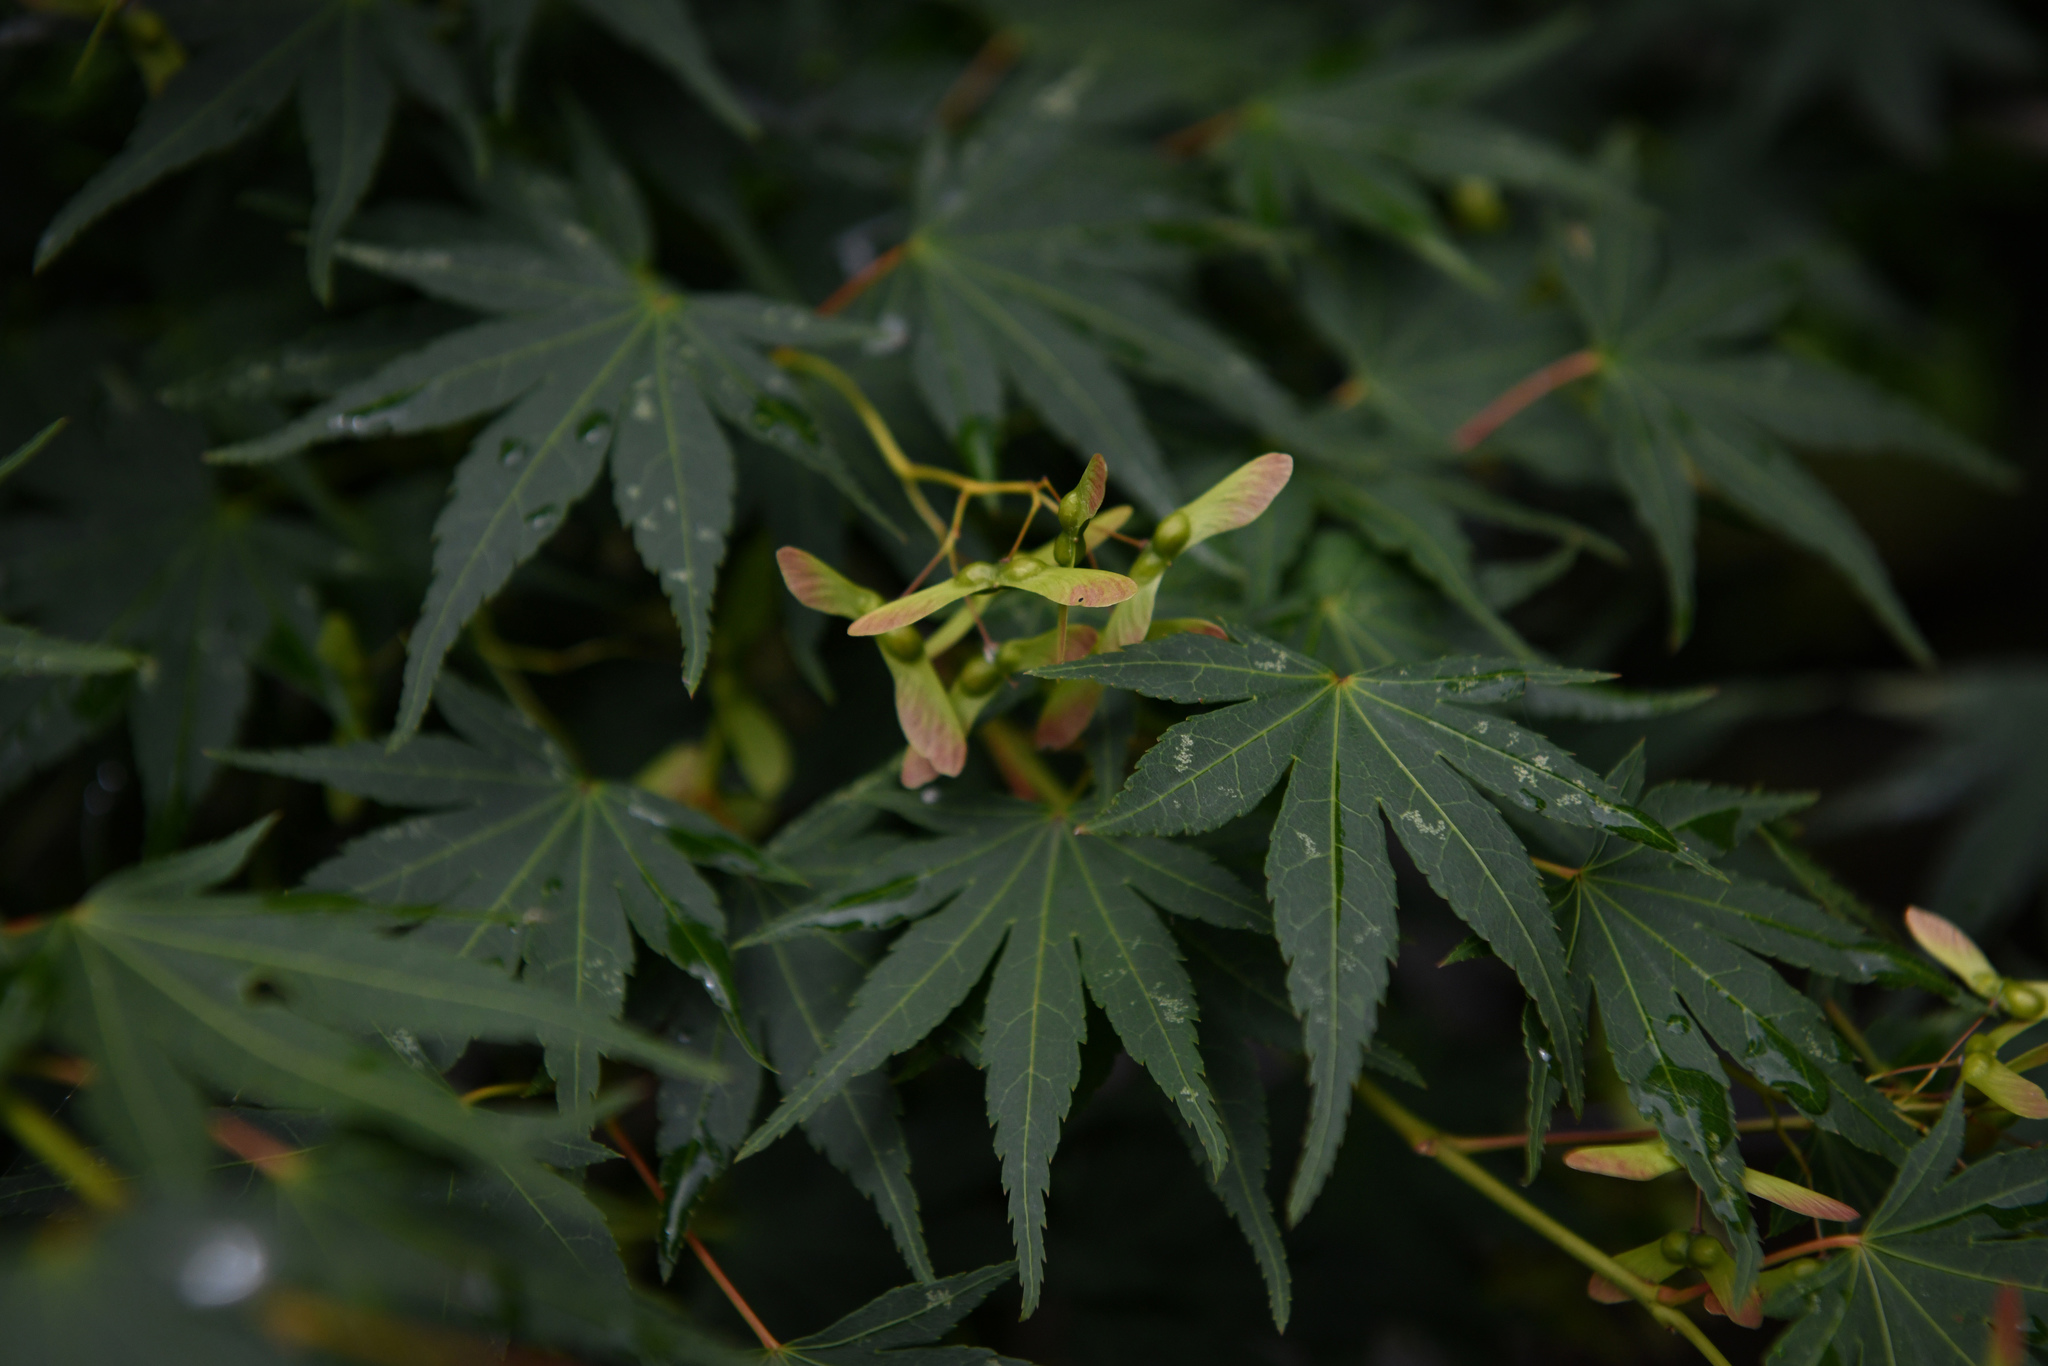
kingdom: Plantae
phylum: Tracheophyta
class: Magnoliopsida
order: Sapindales
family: Sapindaceae
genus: Acer
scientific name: Acer palmatum
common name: Japanese maple
